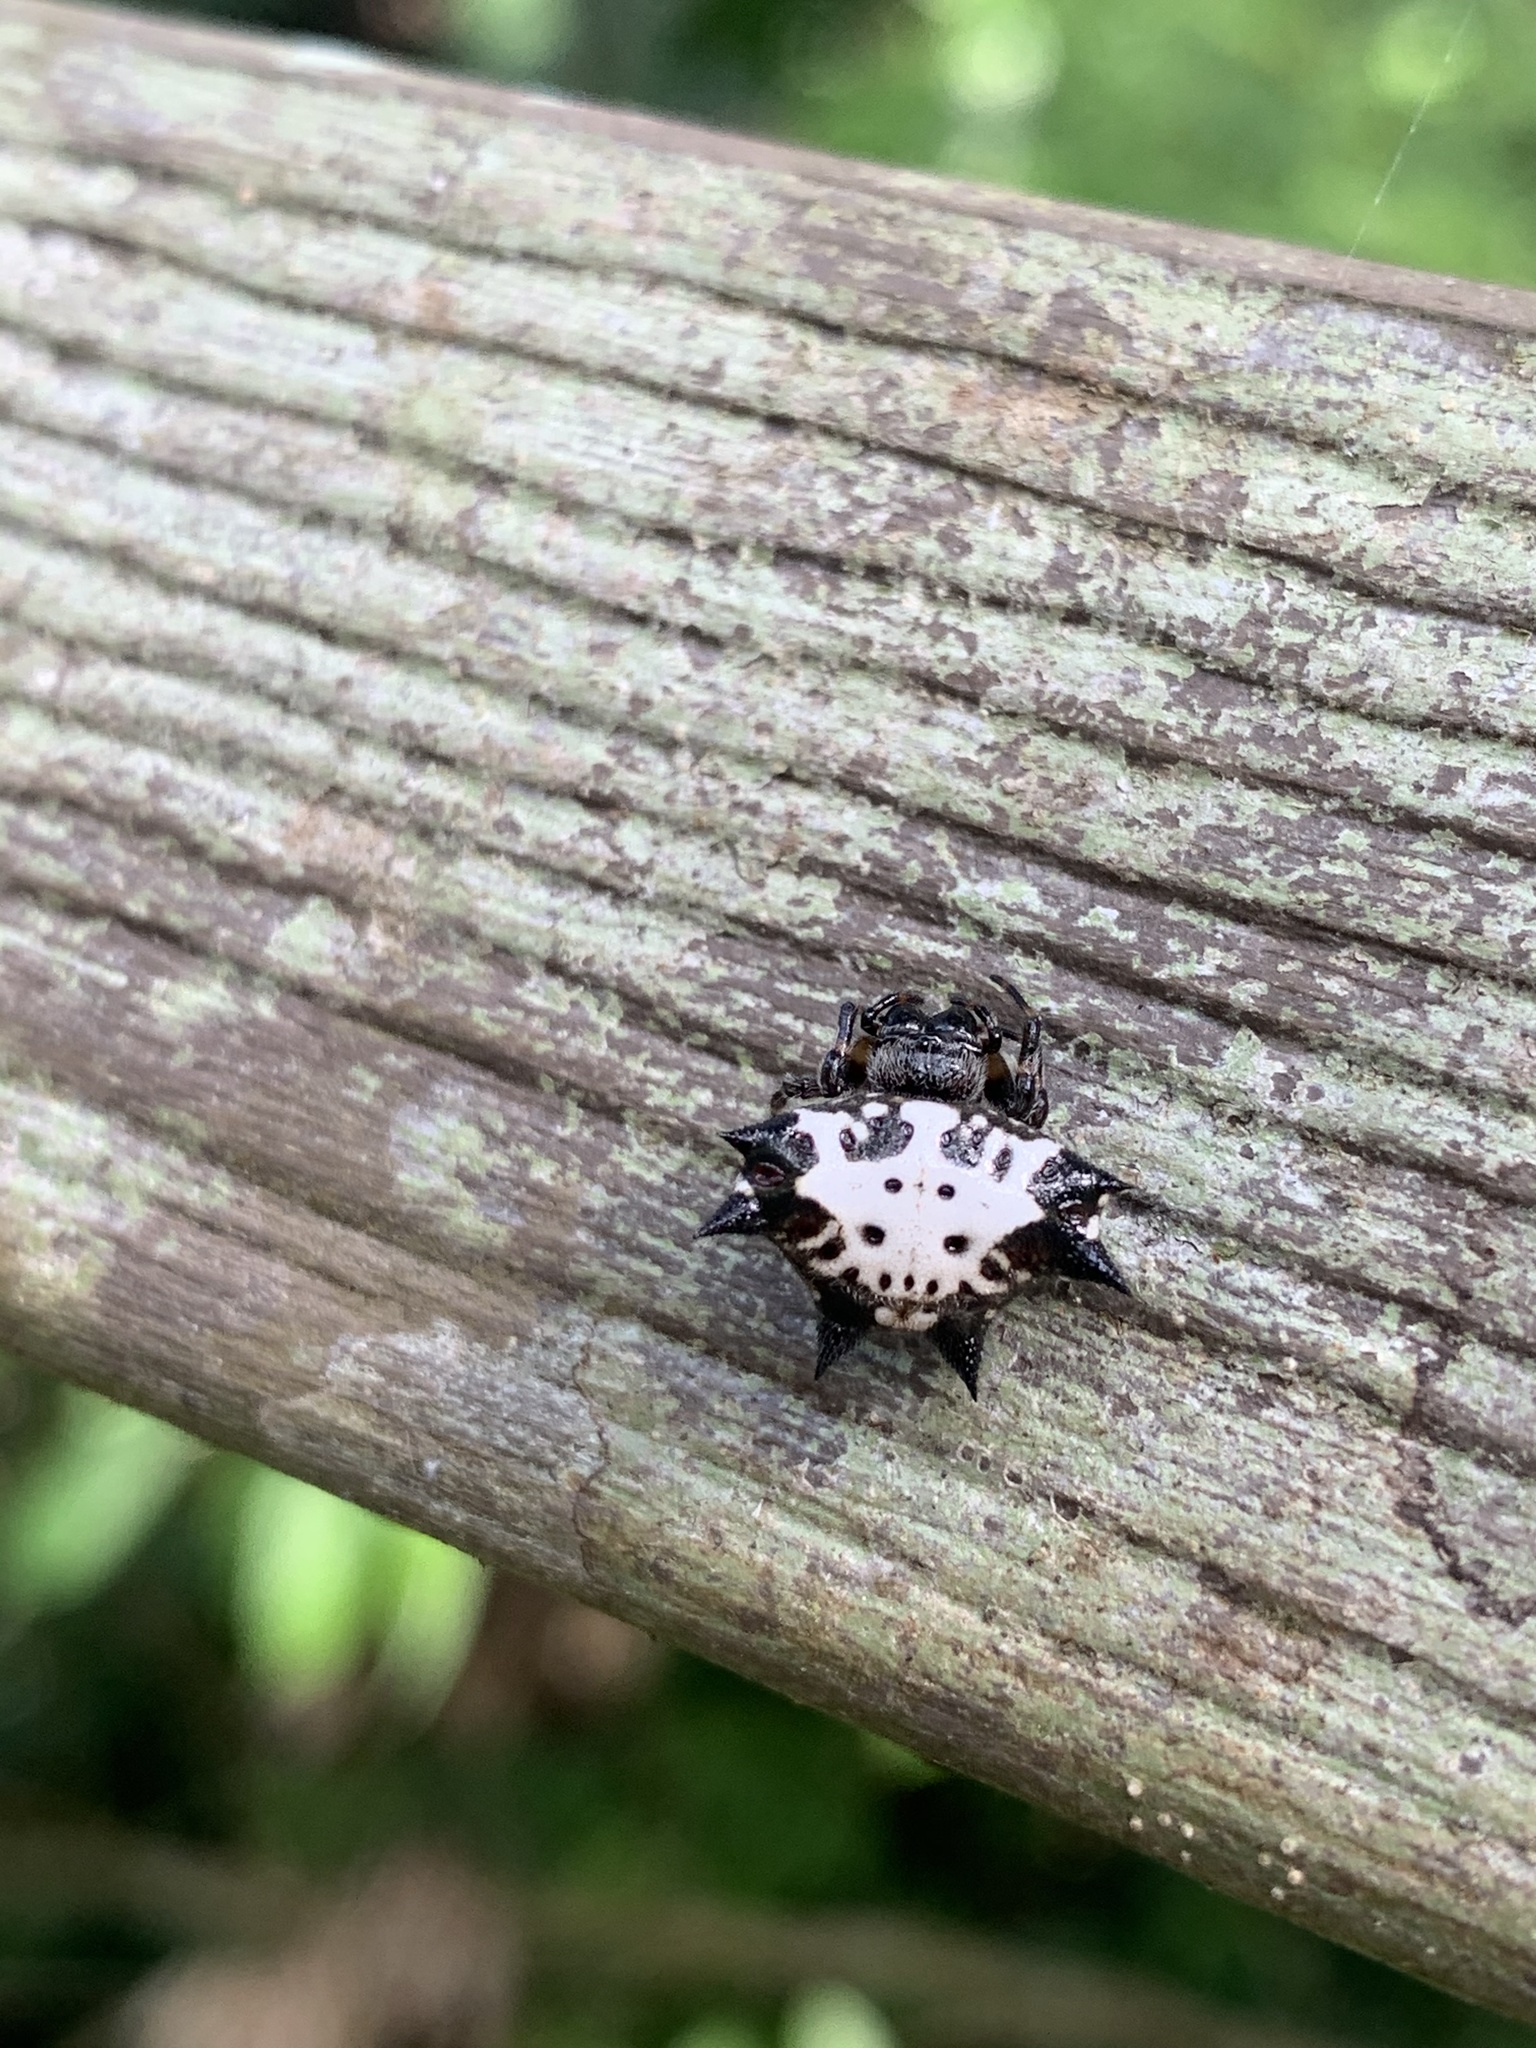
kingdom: Animalia
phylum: Arthropoda
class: Arachnida
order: Araneae
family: Araneidae
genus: Gasteracantha
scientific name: Gasteracantha kuhli
